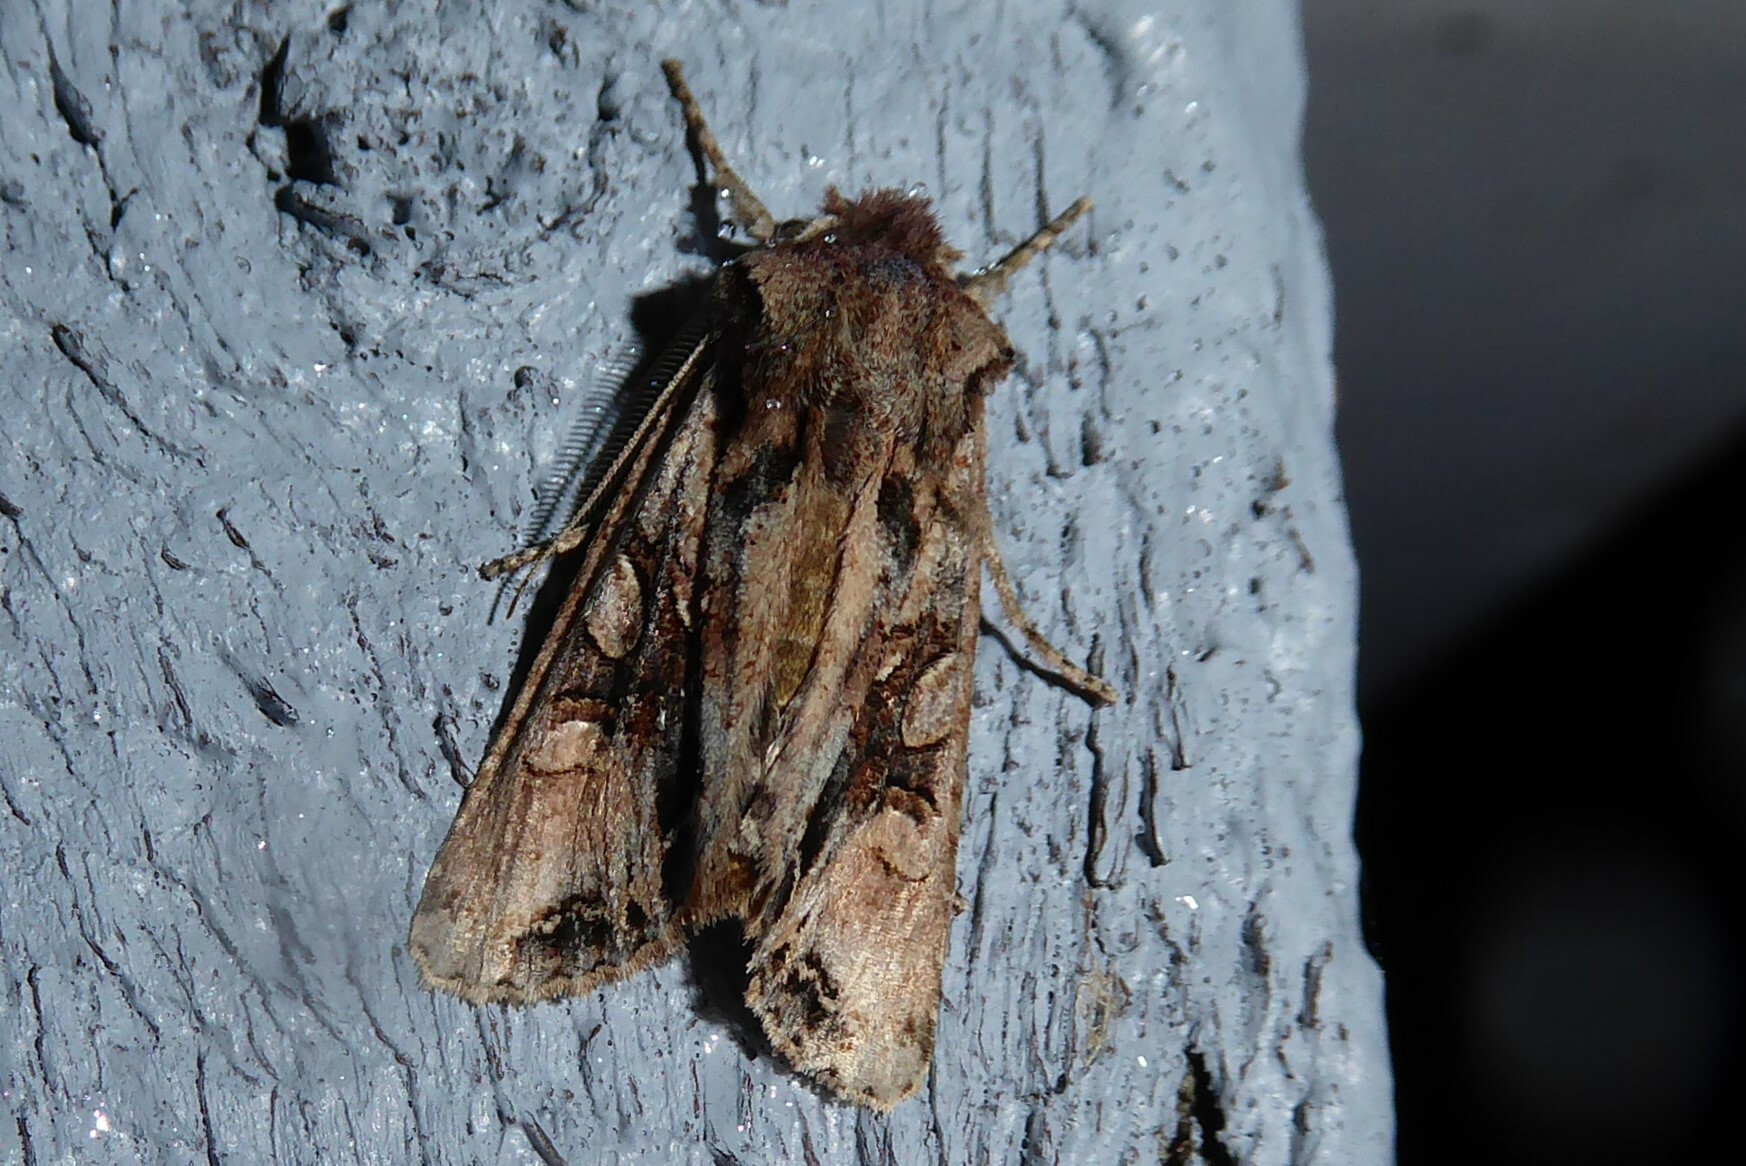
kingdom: Animalia
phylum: Arthropoda
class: Insecta
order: Lepidoptera
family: Noctuidae
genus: Ichneutica
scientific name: Ichneutica
